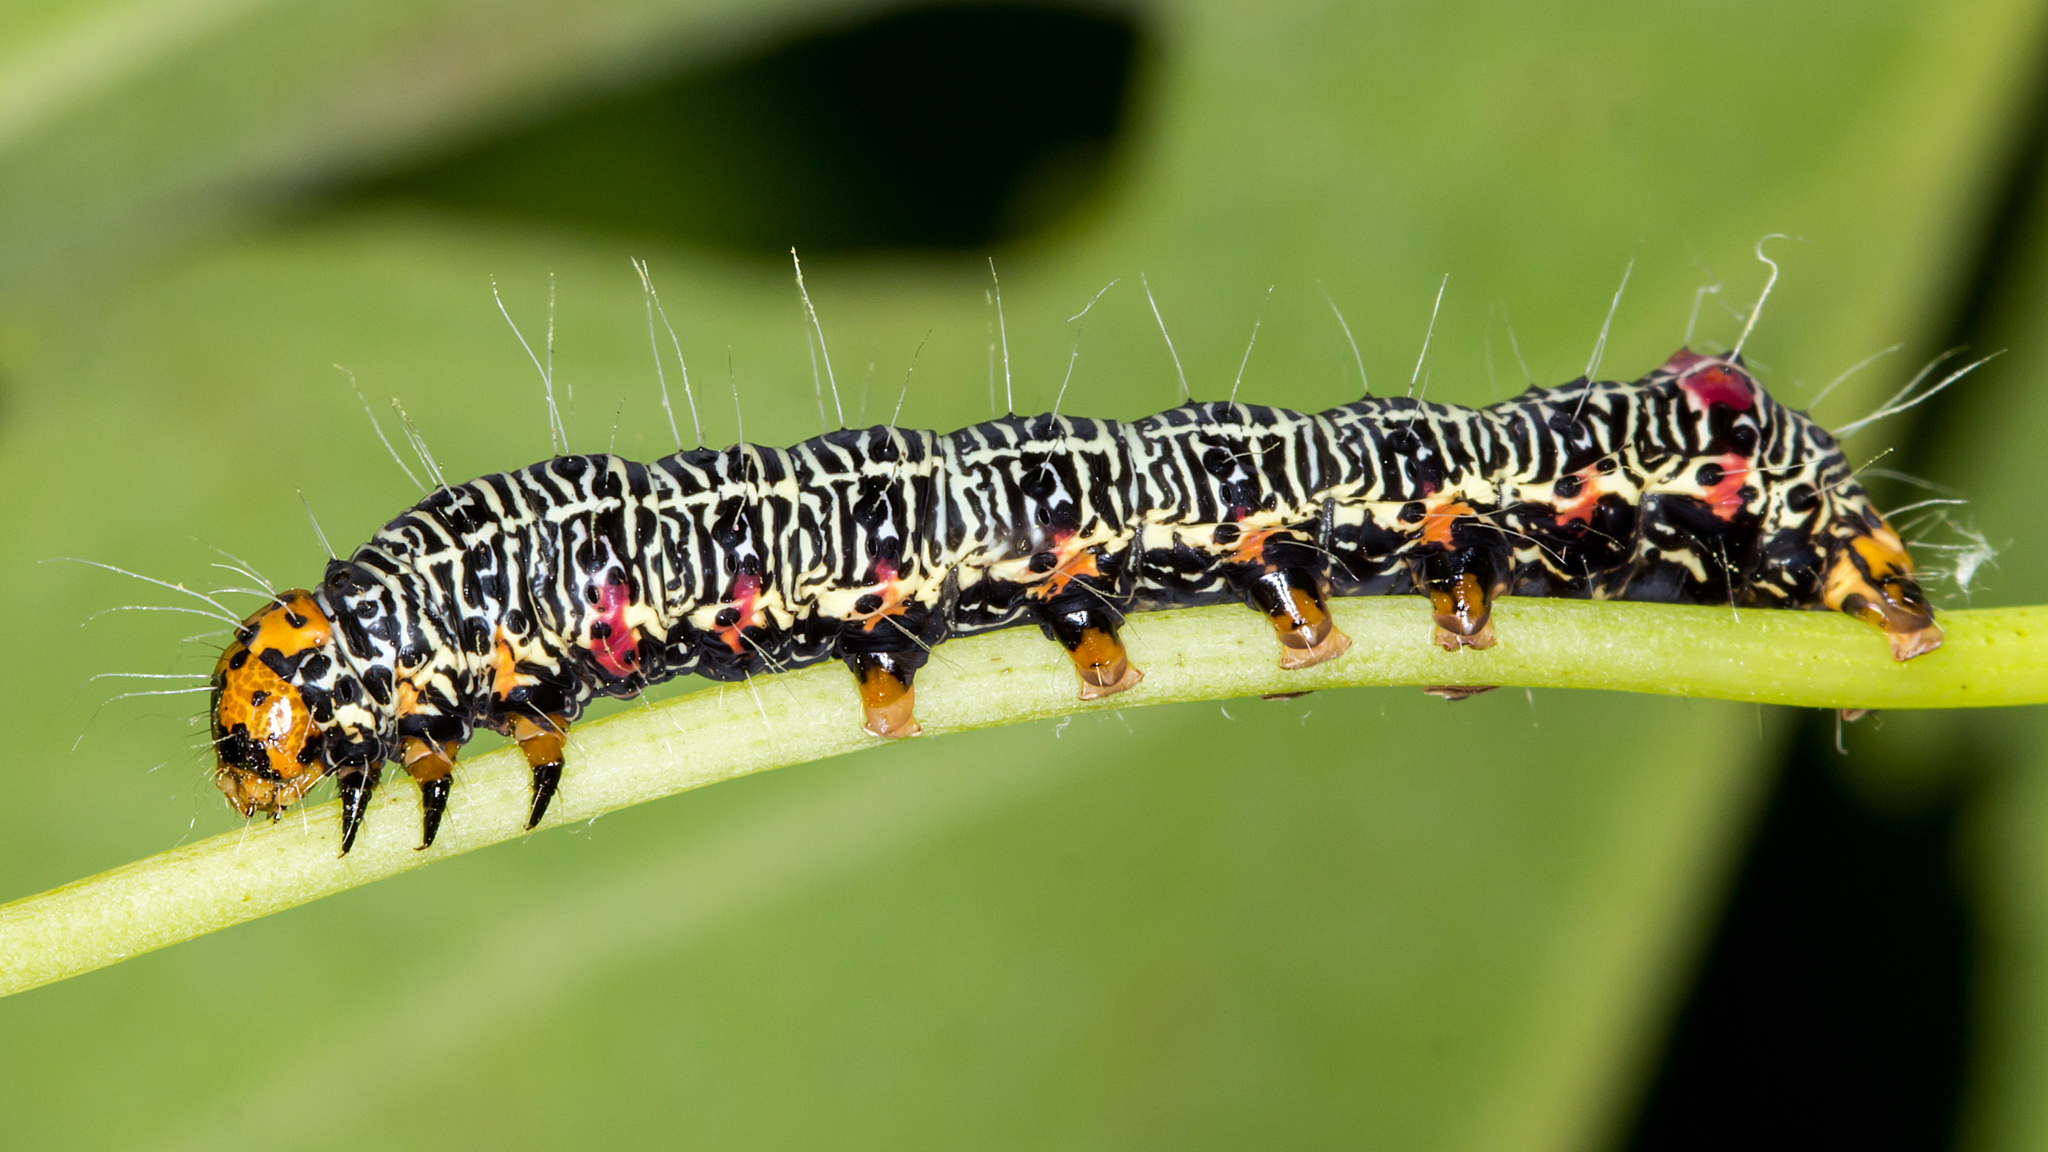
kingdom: Animalia
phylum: Arthropoda
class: Insecta
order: Lepidoptera
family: Noctuidae
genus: Phalaenoides
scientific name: Phalaenoides glycinae
